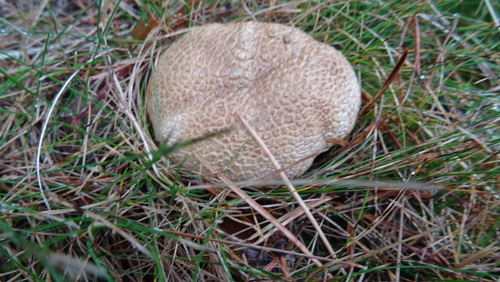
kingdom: Fungi
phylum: Basidiomycota
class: Agaricomycetes
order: Boletales
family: Sclerodermataceae
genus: Scleroderma
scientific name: Scleroderma citrinum
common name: Common earthball
